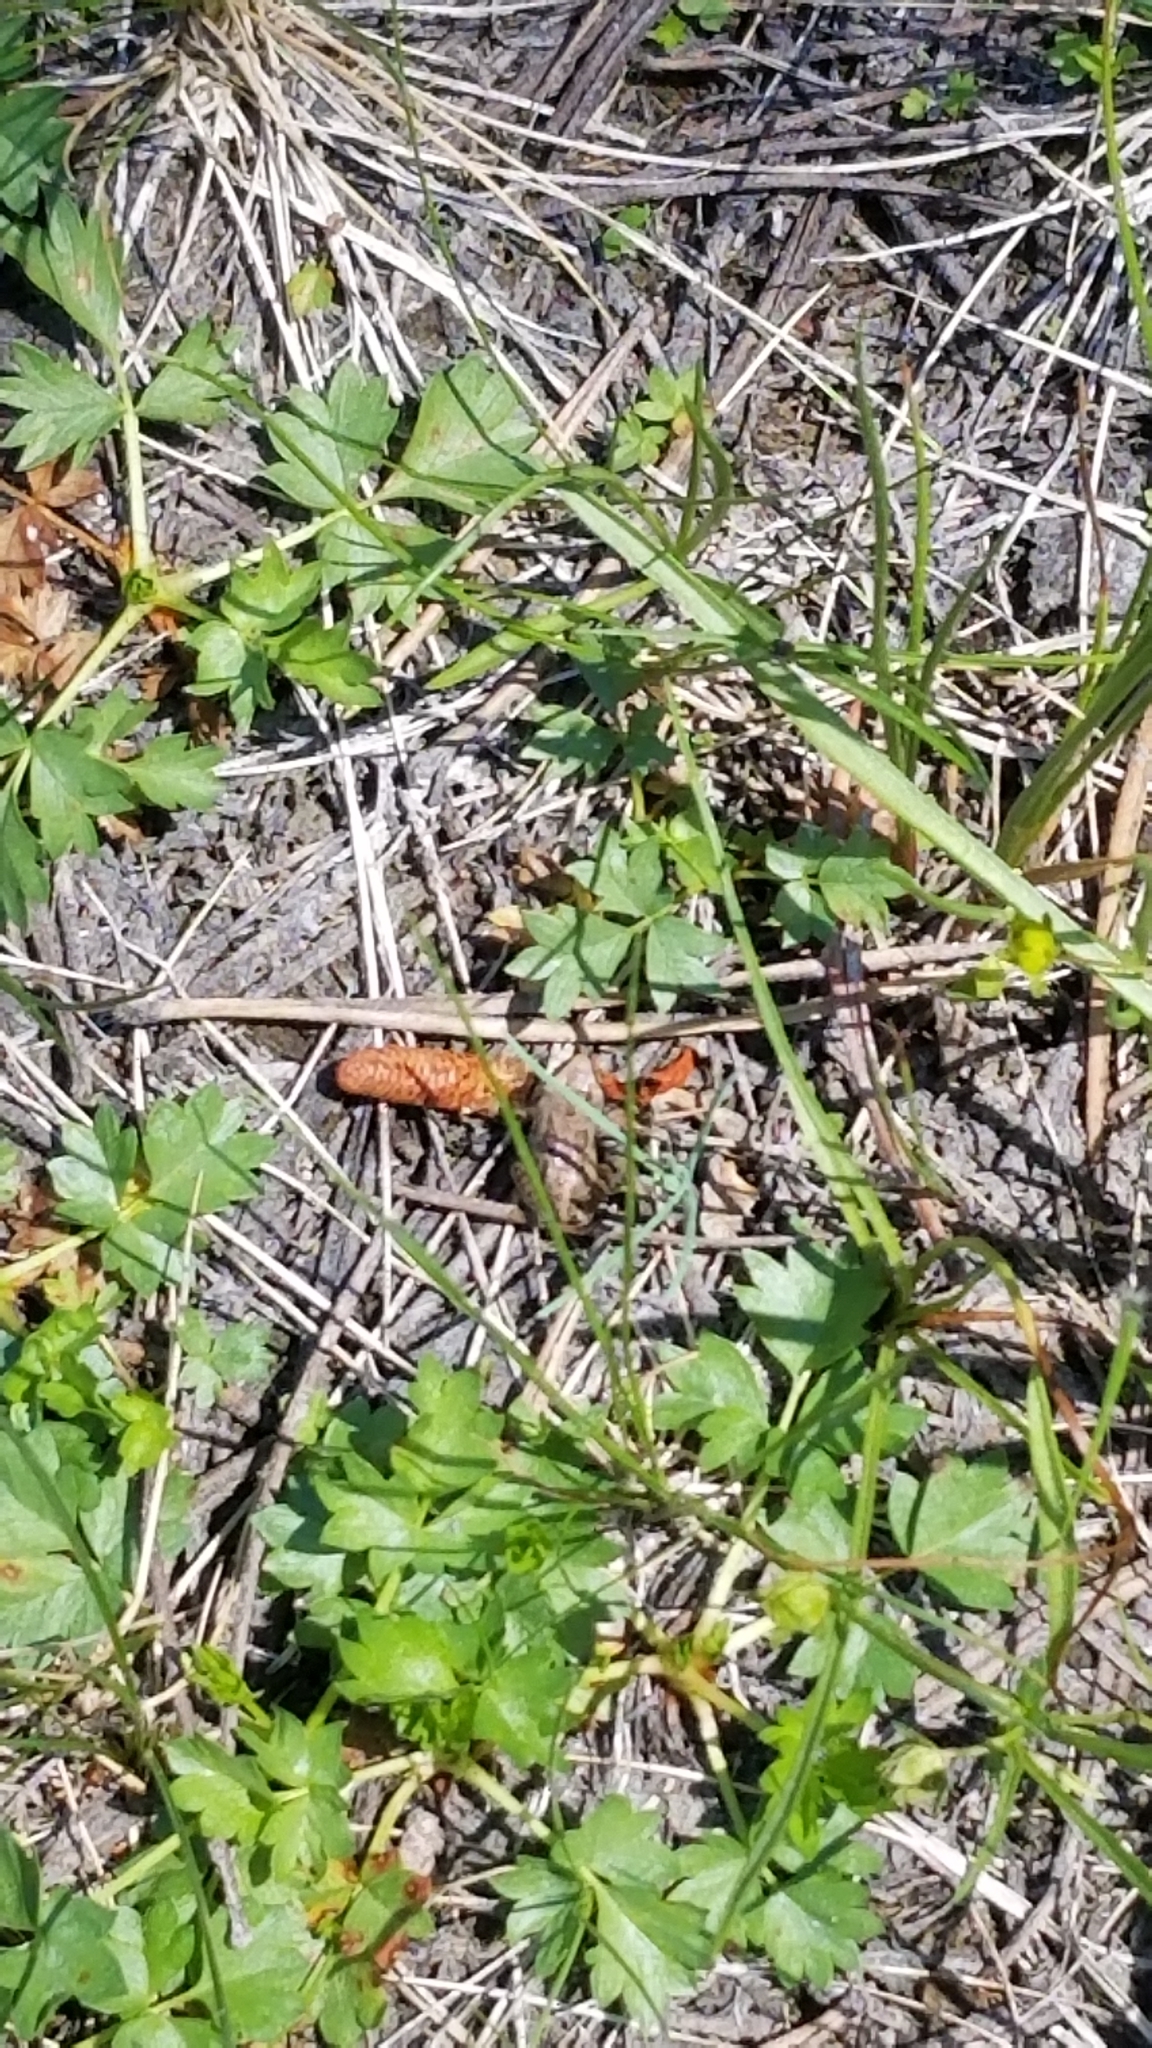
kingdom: Animalia
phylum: Chordata
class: Amphibia
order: Anura
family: Hylidae
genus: Pseudacris
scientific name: Pseudacris regilla
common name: Pacific chorus frog
